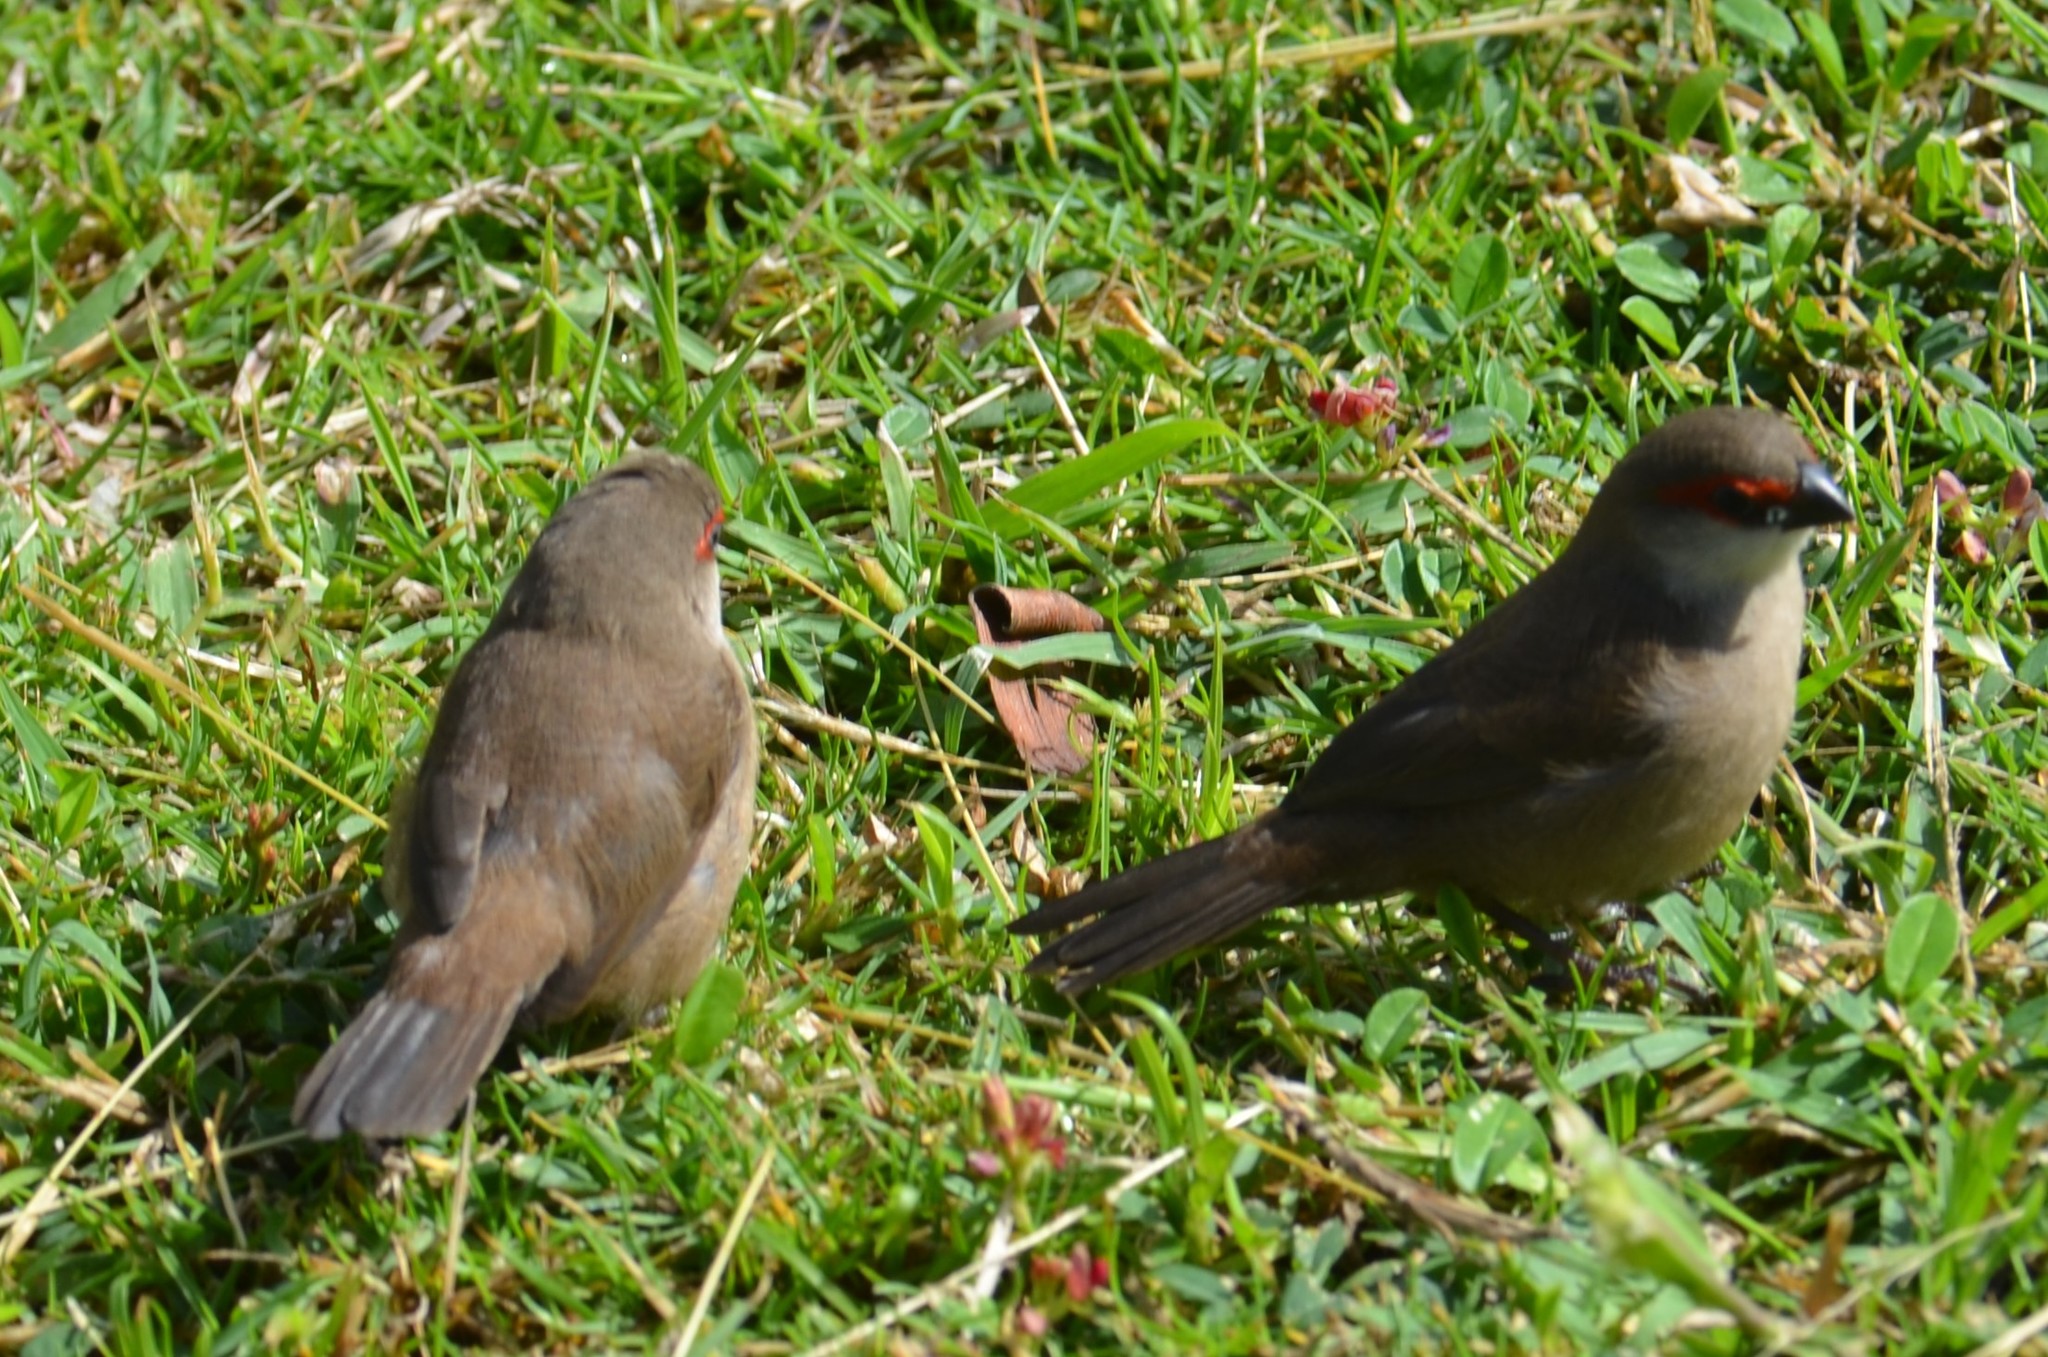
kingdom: Animalia
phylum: Chordata
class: Aves
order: Passeriformes
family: Estrildidae
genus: Estrilda
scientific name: Estrilda astrild
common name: Common waxbill
